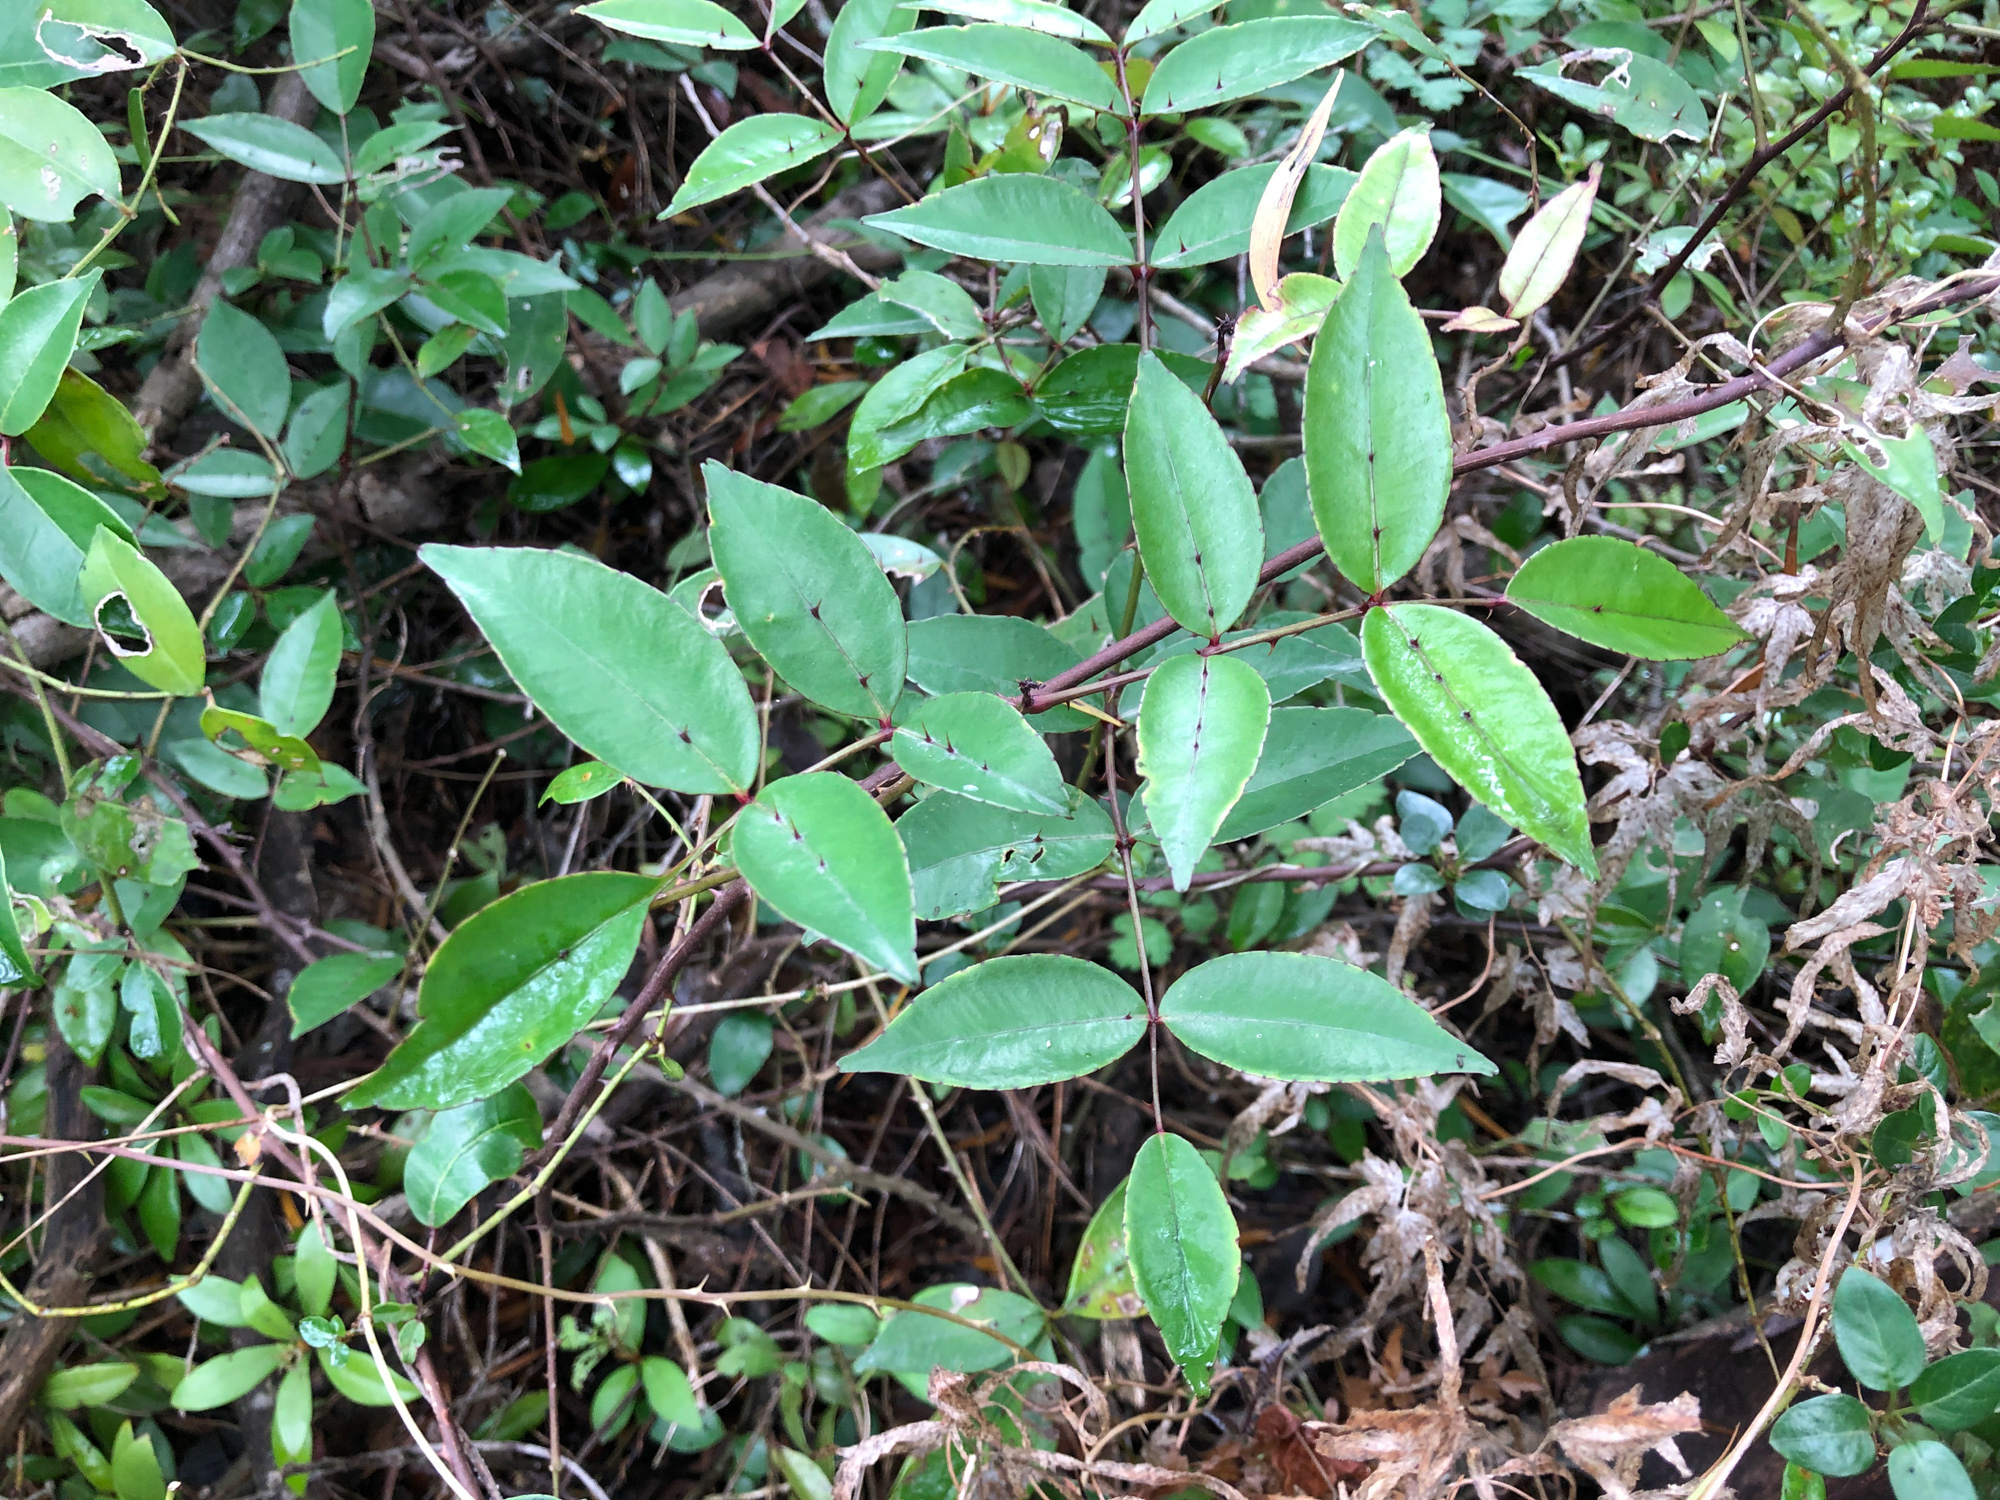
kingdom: Plantae
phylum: Tracheophyta
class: Magnoliopsida
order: Sapindales
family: Rutaceae
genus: Zanthoxylum
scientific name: Zanthoxylum nitidum
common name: Shiny-leaf prickly-ash
